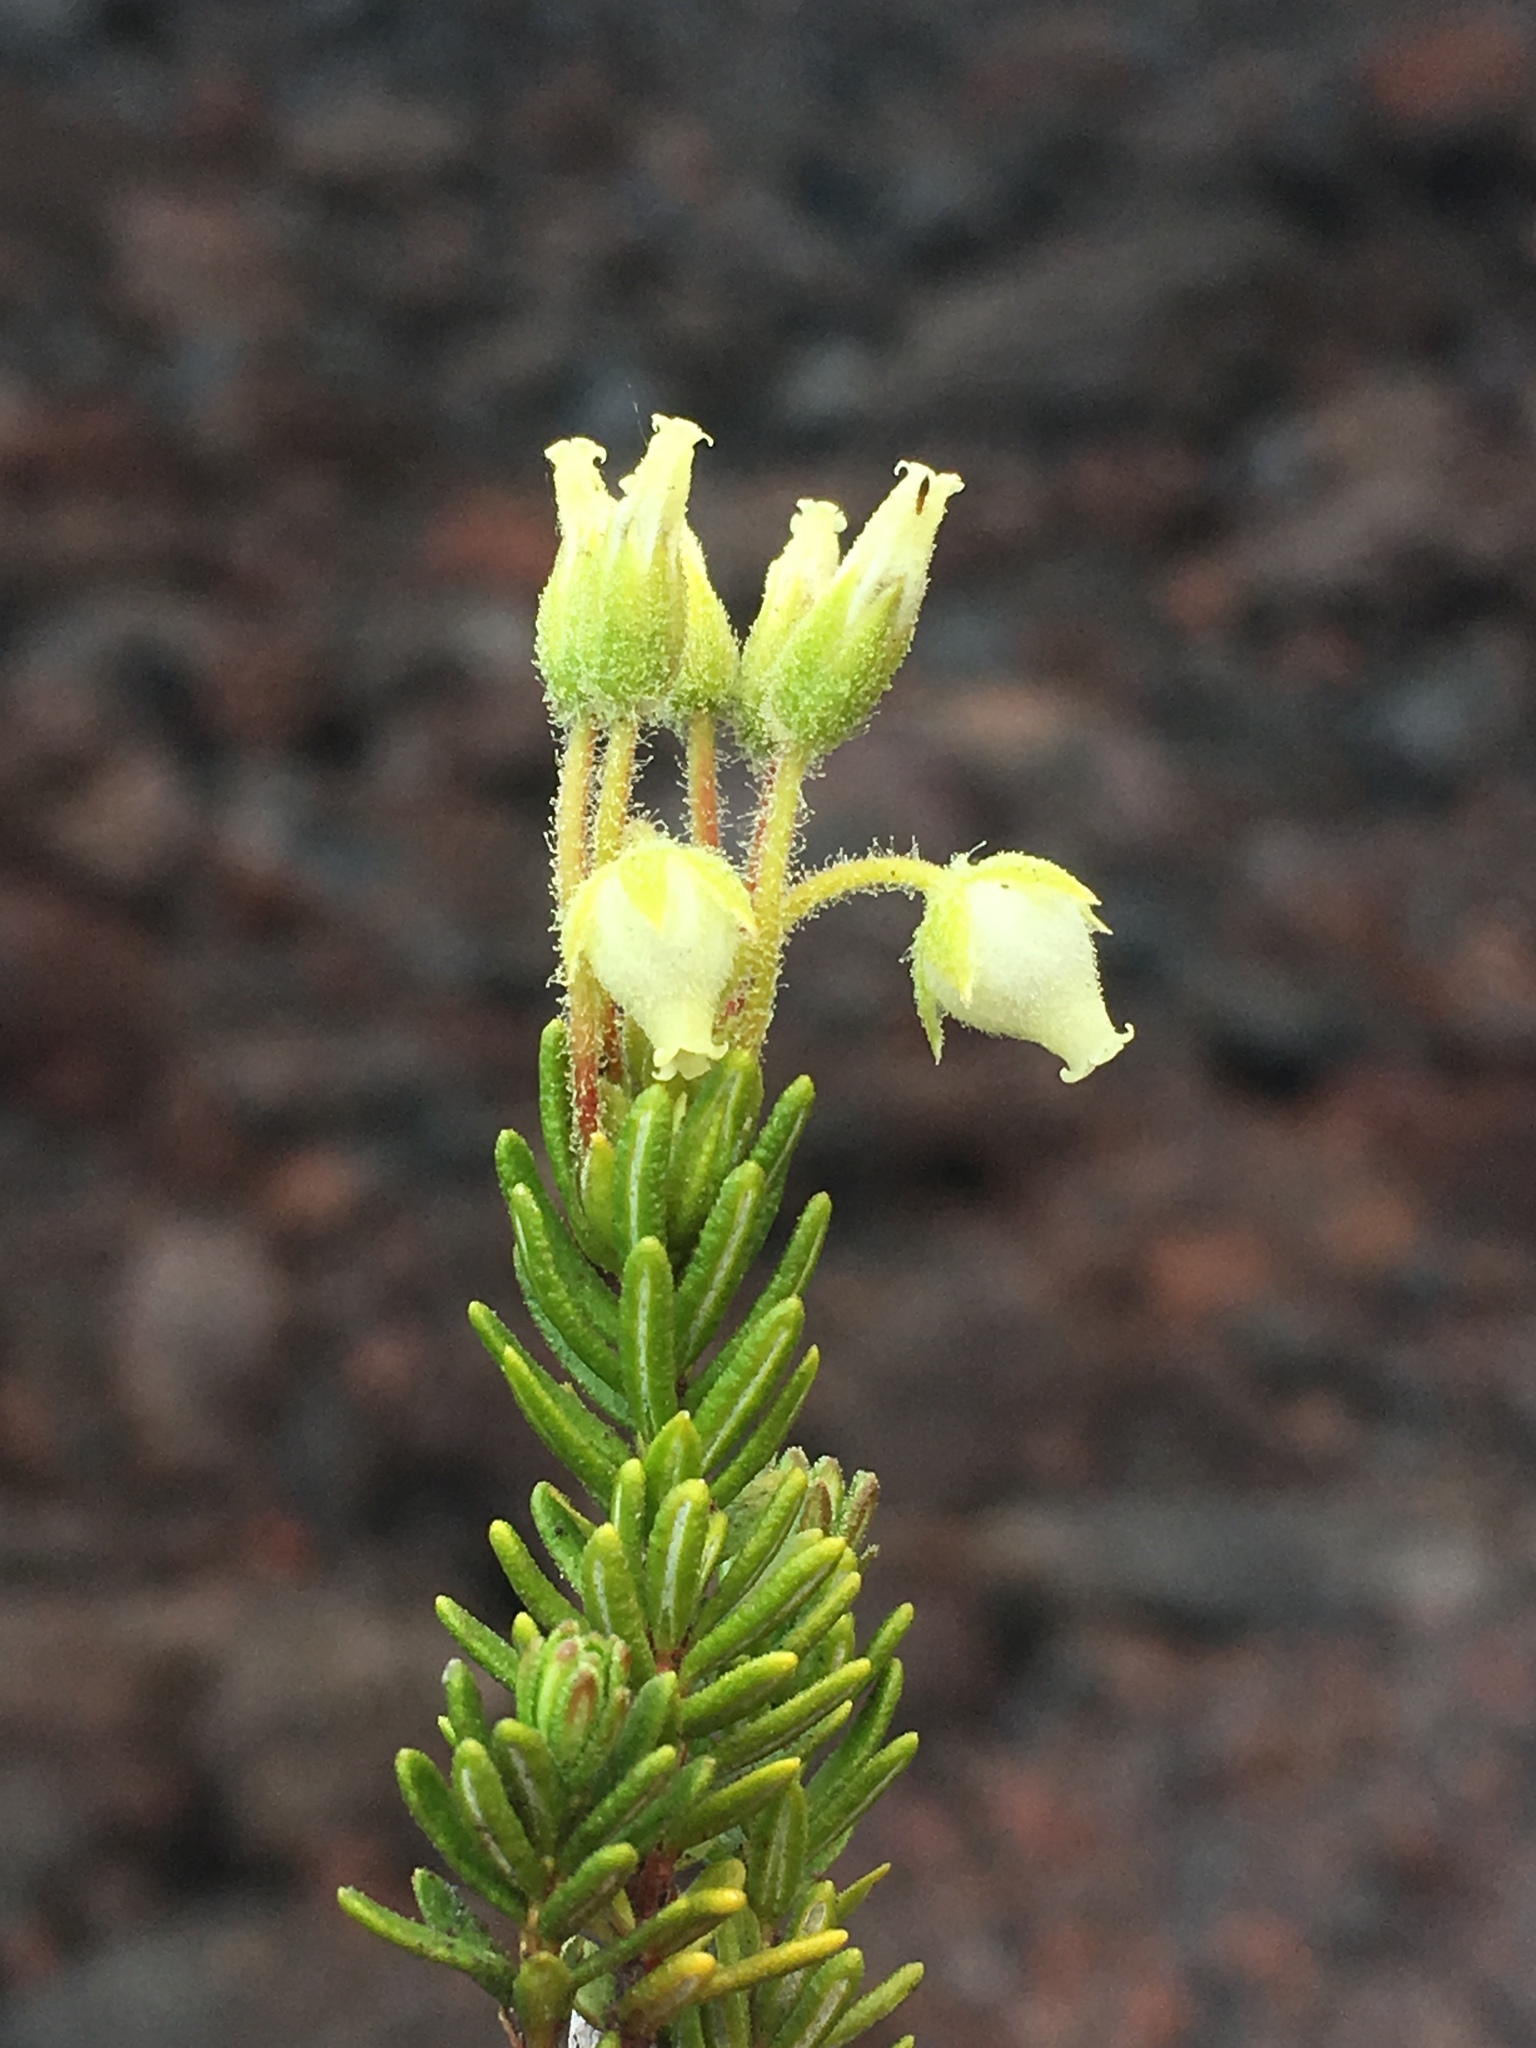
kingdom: Plantae
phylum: Tracheophyta
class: Magnoliopsida
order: Ericales
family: Ericaceae
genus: Phyllodoce
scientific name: Phyllodoce glanduliflora
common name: Cream mountain heather
